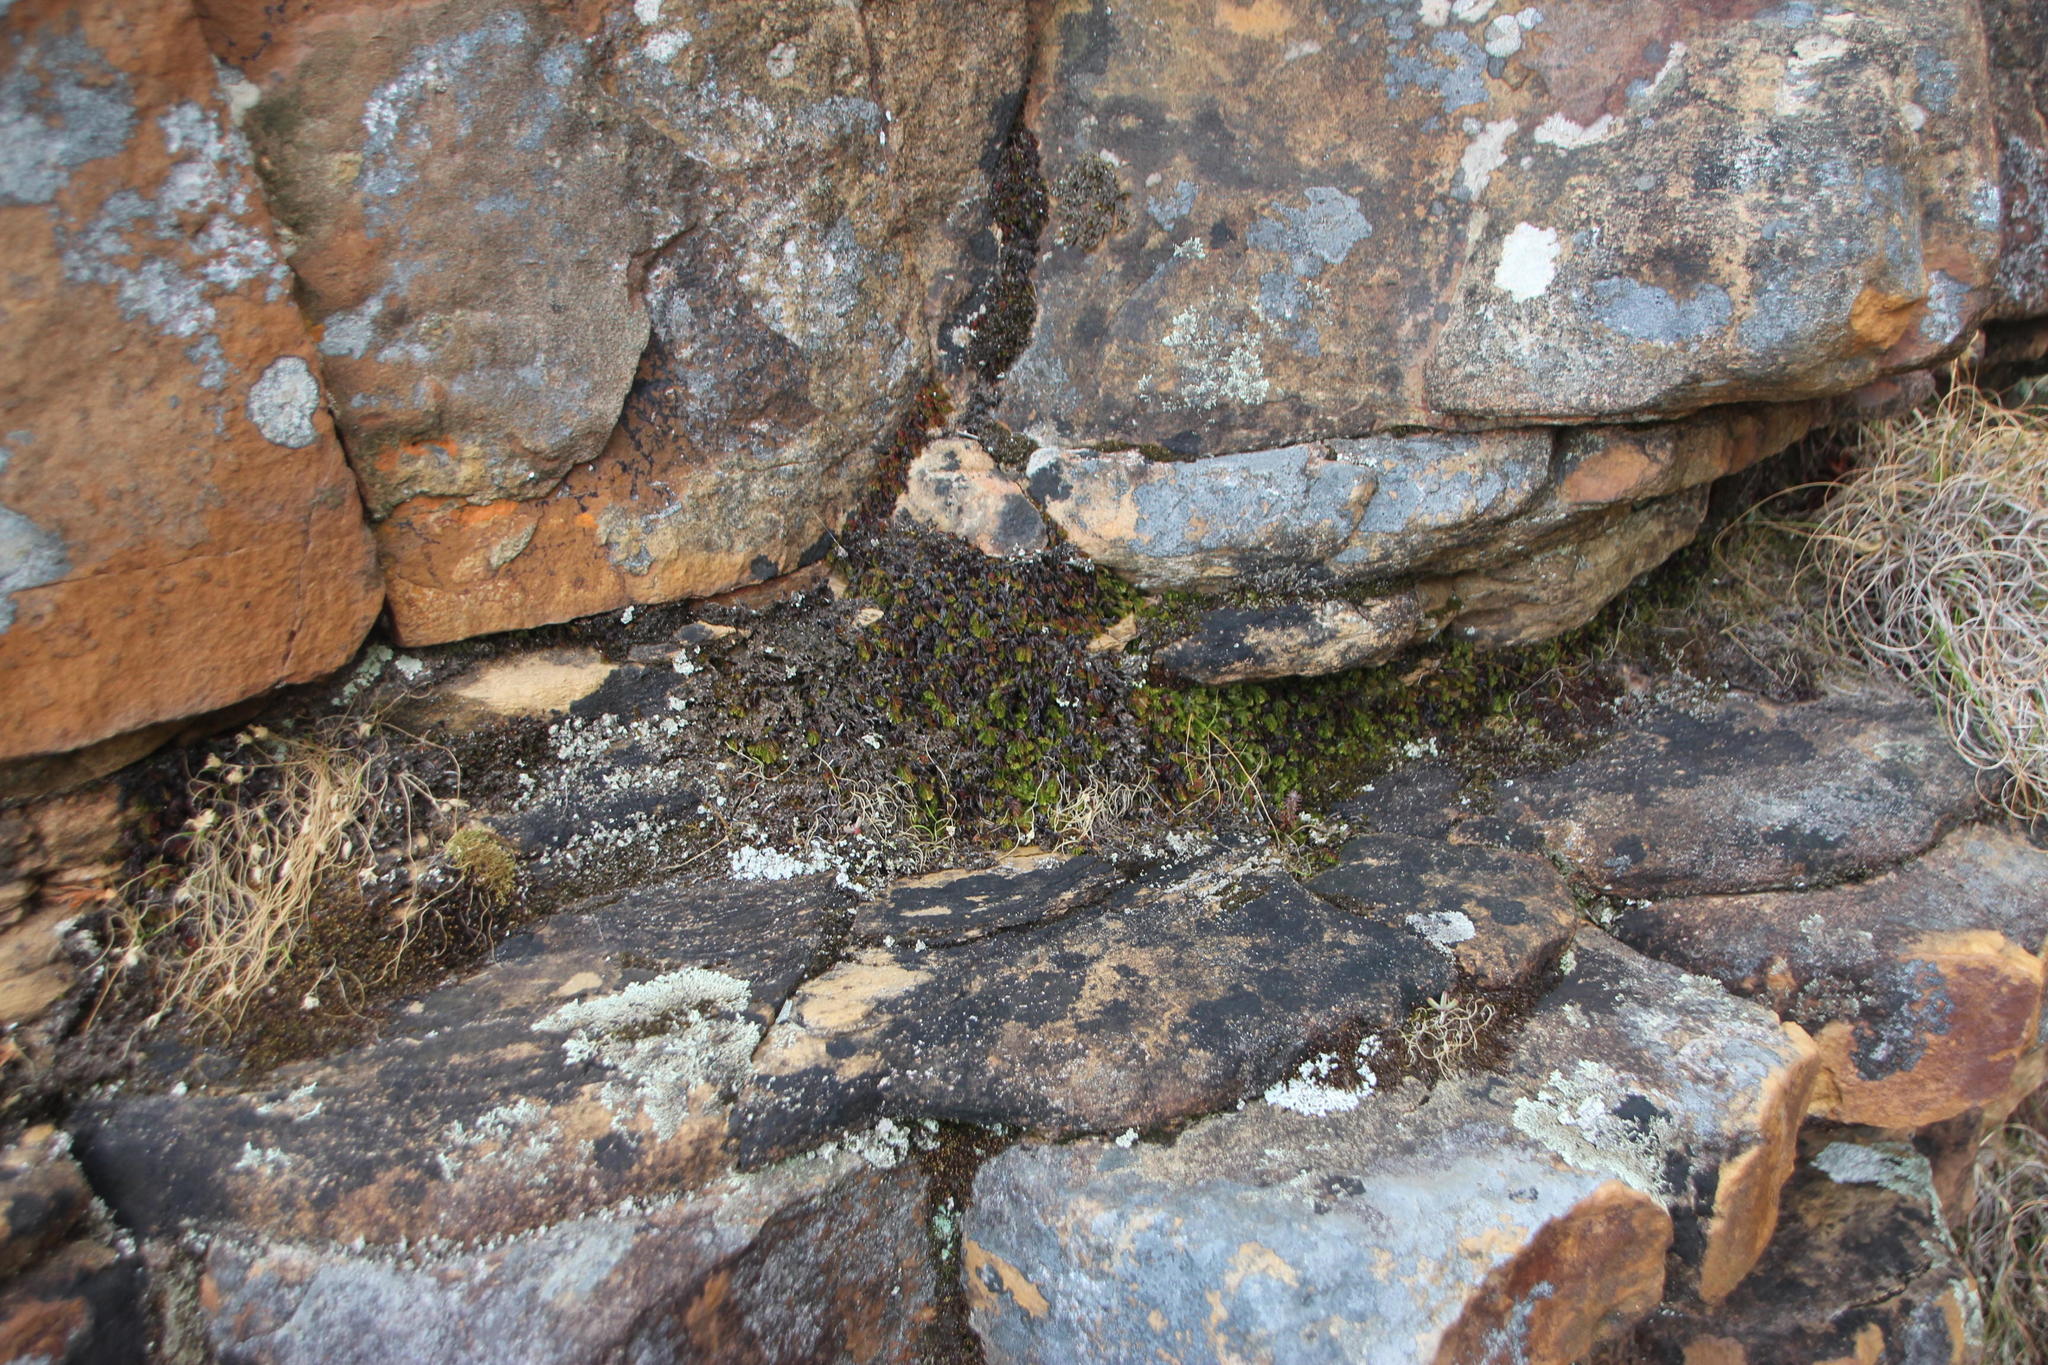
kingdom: Plantae
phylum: Tracheophyta
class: Polypodiopsida
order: Hymenophyllales
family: Hymenophyllaceae
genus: Hymenophyllum
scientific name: Hymenophyllum capense
